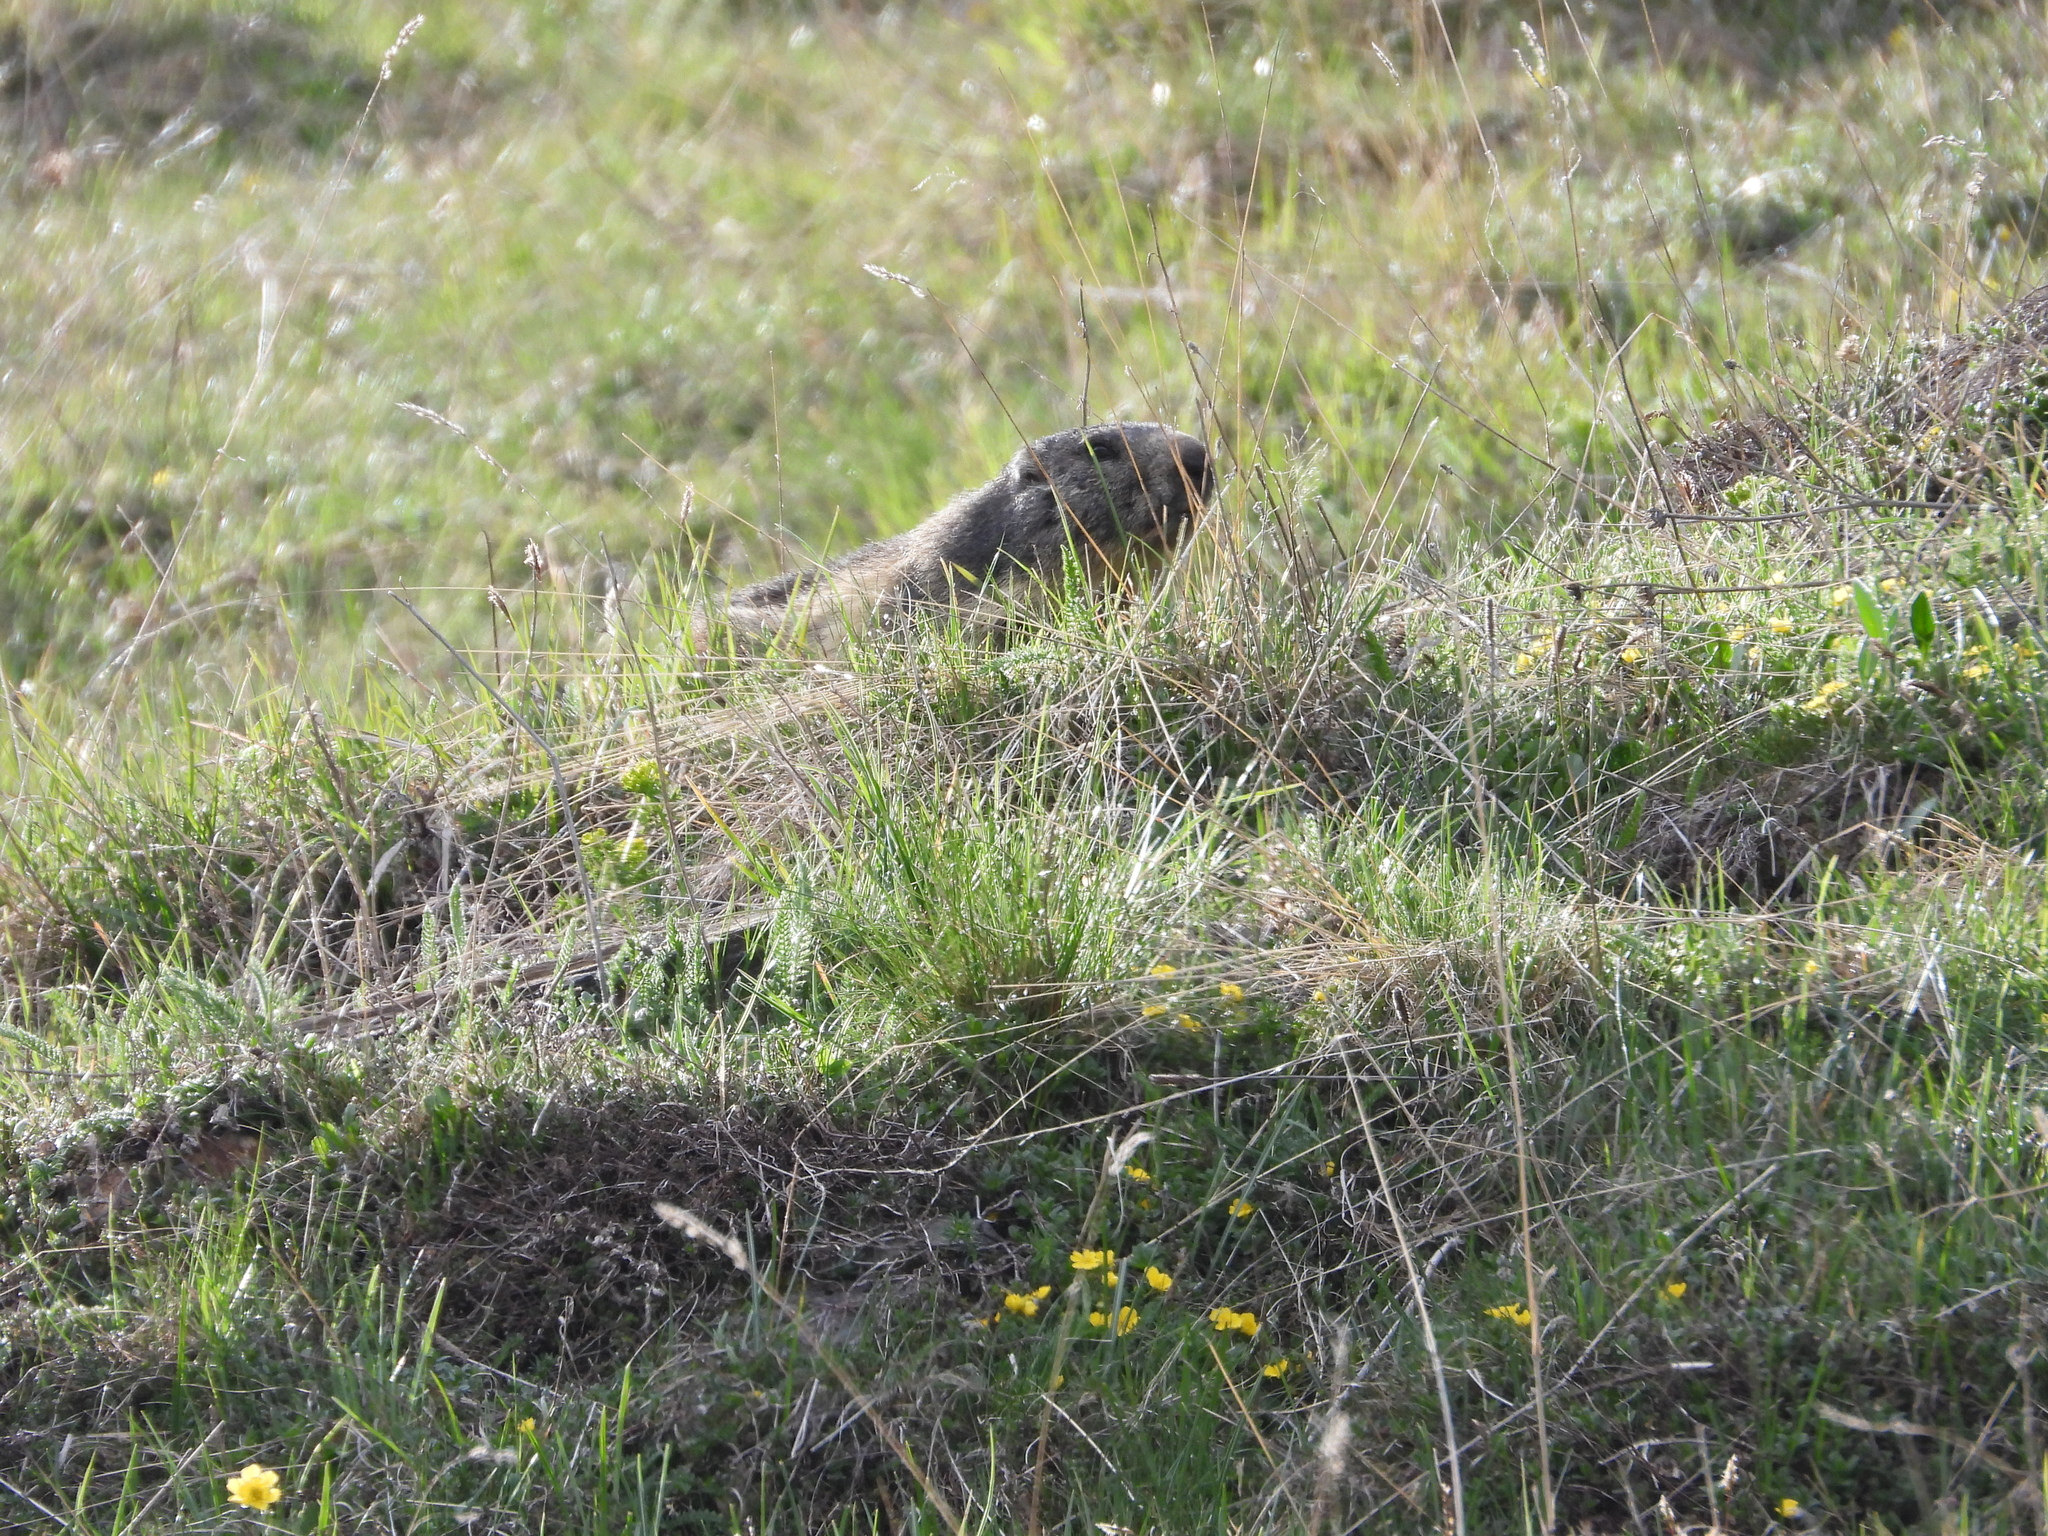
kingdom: Animalia
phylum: Chordata
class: Mammalia
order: Rodentia
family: Sciuridae
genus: Marmota
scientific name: Marmota marmota
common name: Alpine marmot
